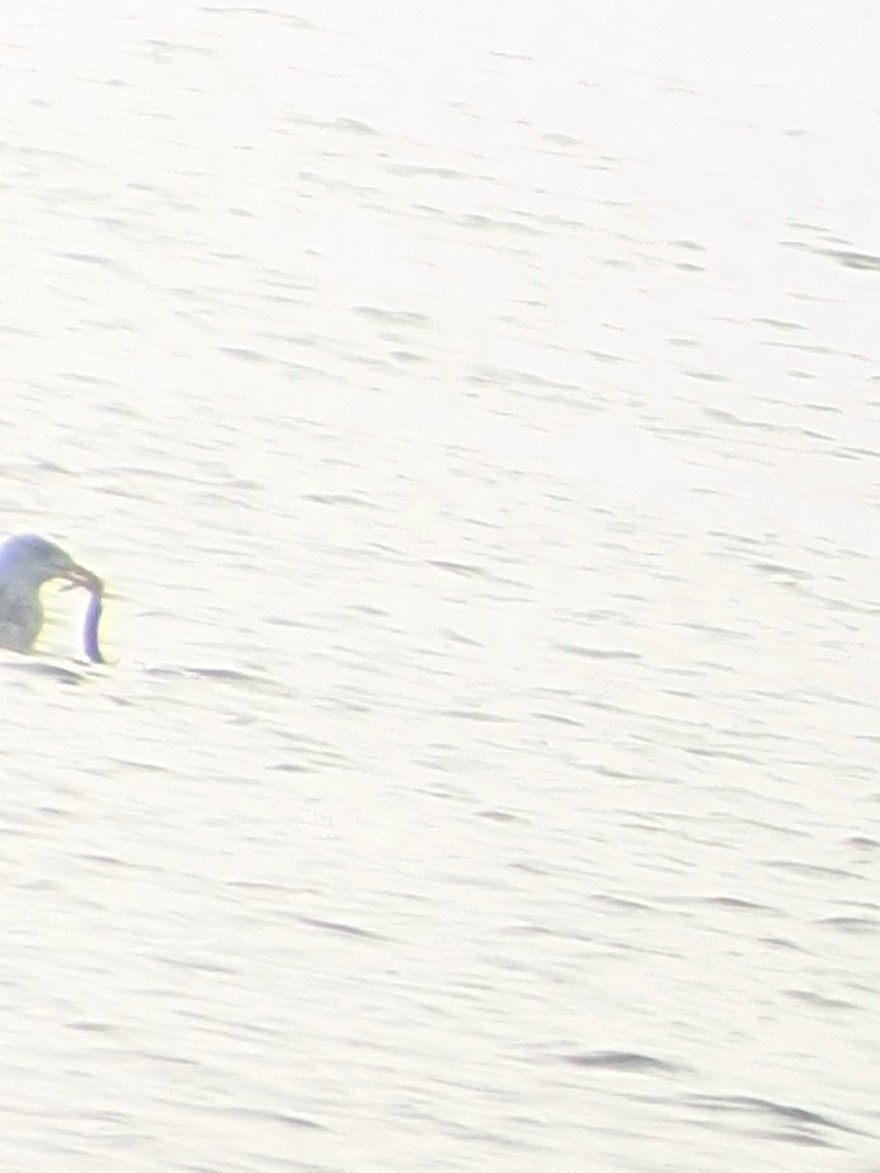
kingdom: Animalia
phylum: Chordata
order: Anguilliformes
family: Anguillidae
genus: Anguilla
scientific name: Anguilla rostrata
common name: American eel
